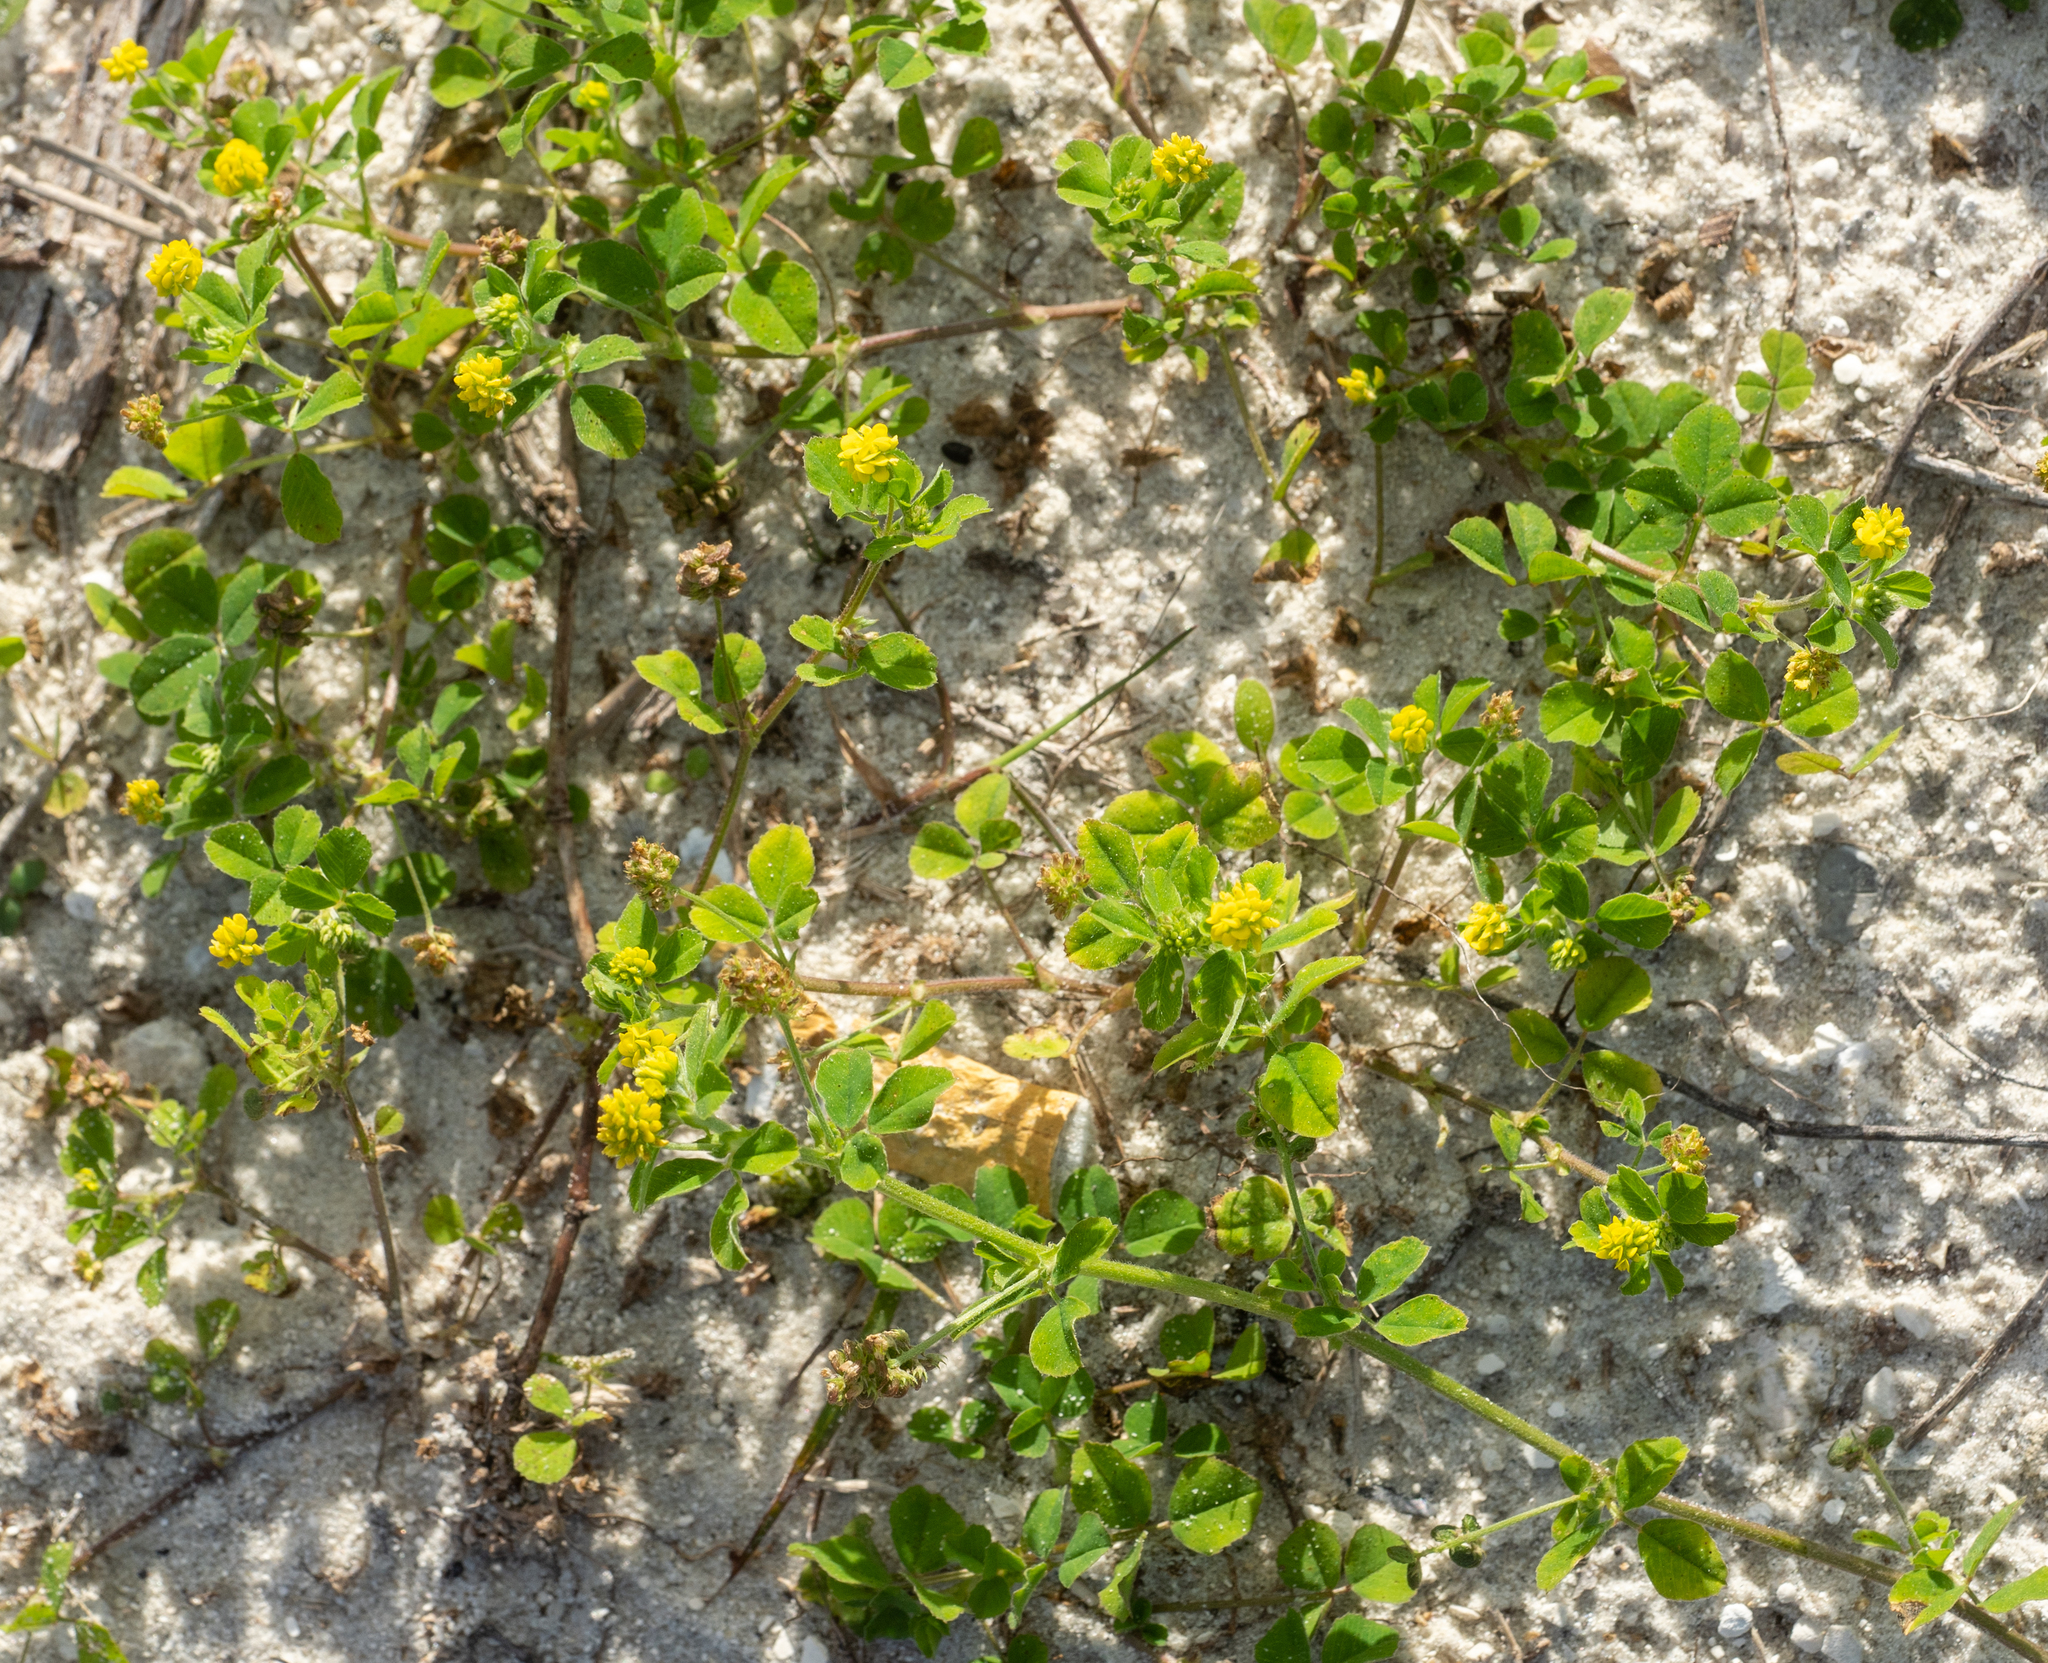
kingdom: Plantae
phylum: Tracheophyta
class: Magnoliopsida
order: Fabales
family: Fabaceae
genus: Medicago
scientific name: Medicago lupulina
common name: Black medick
